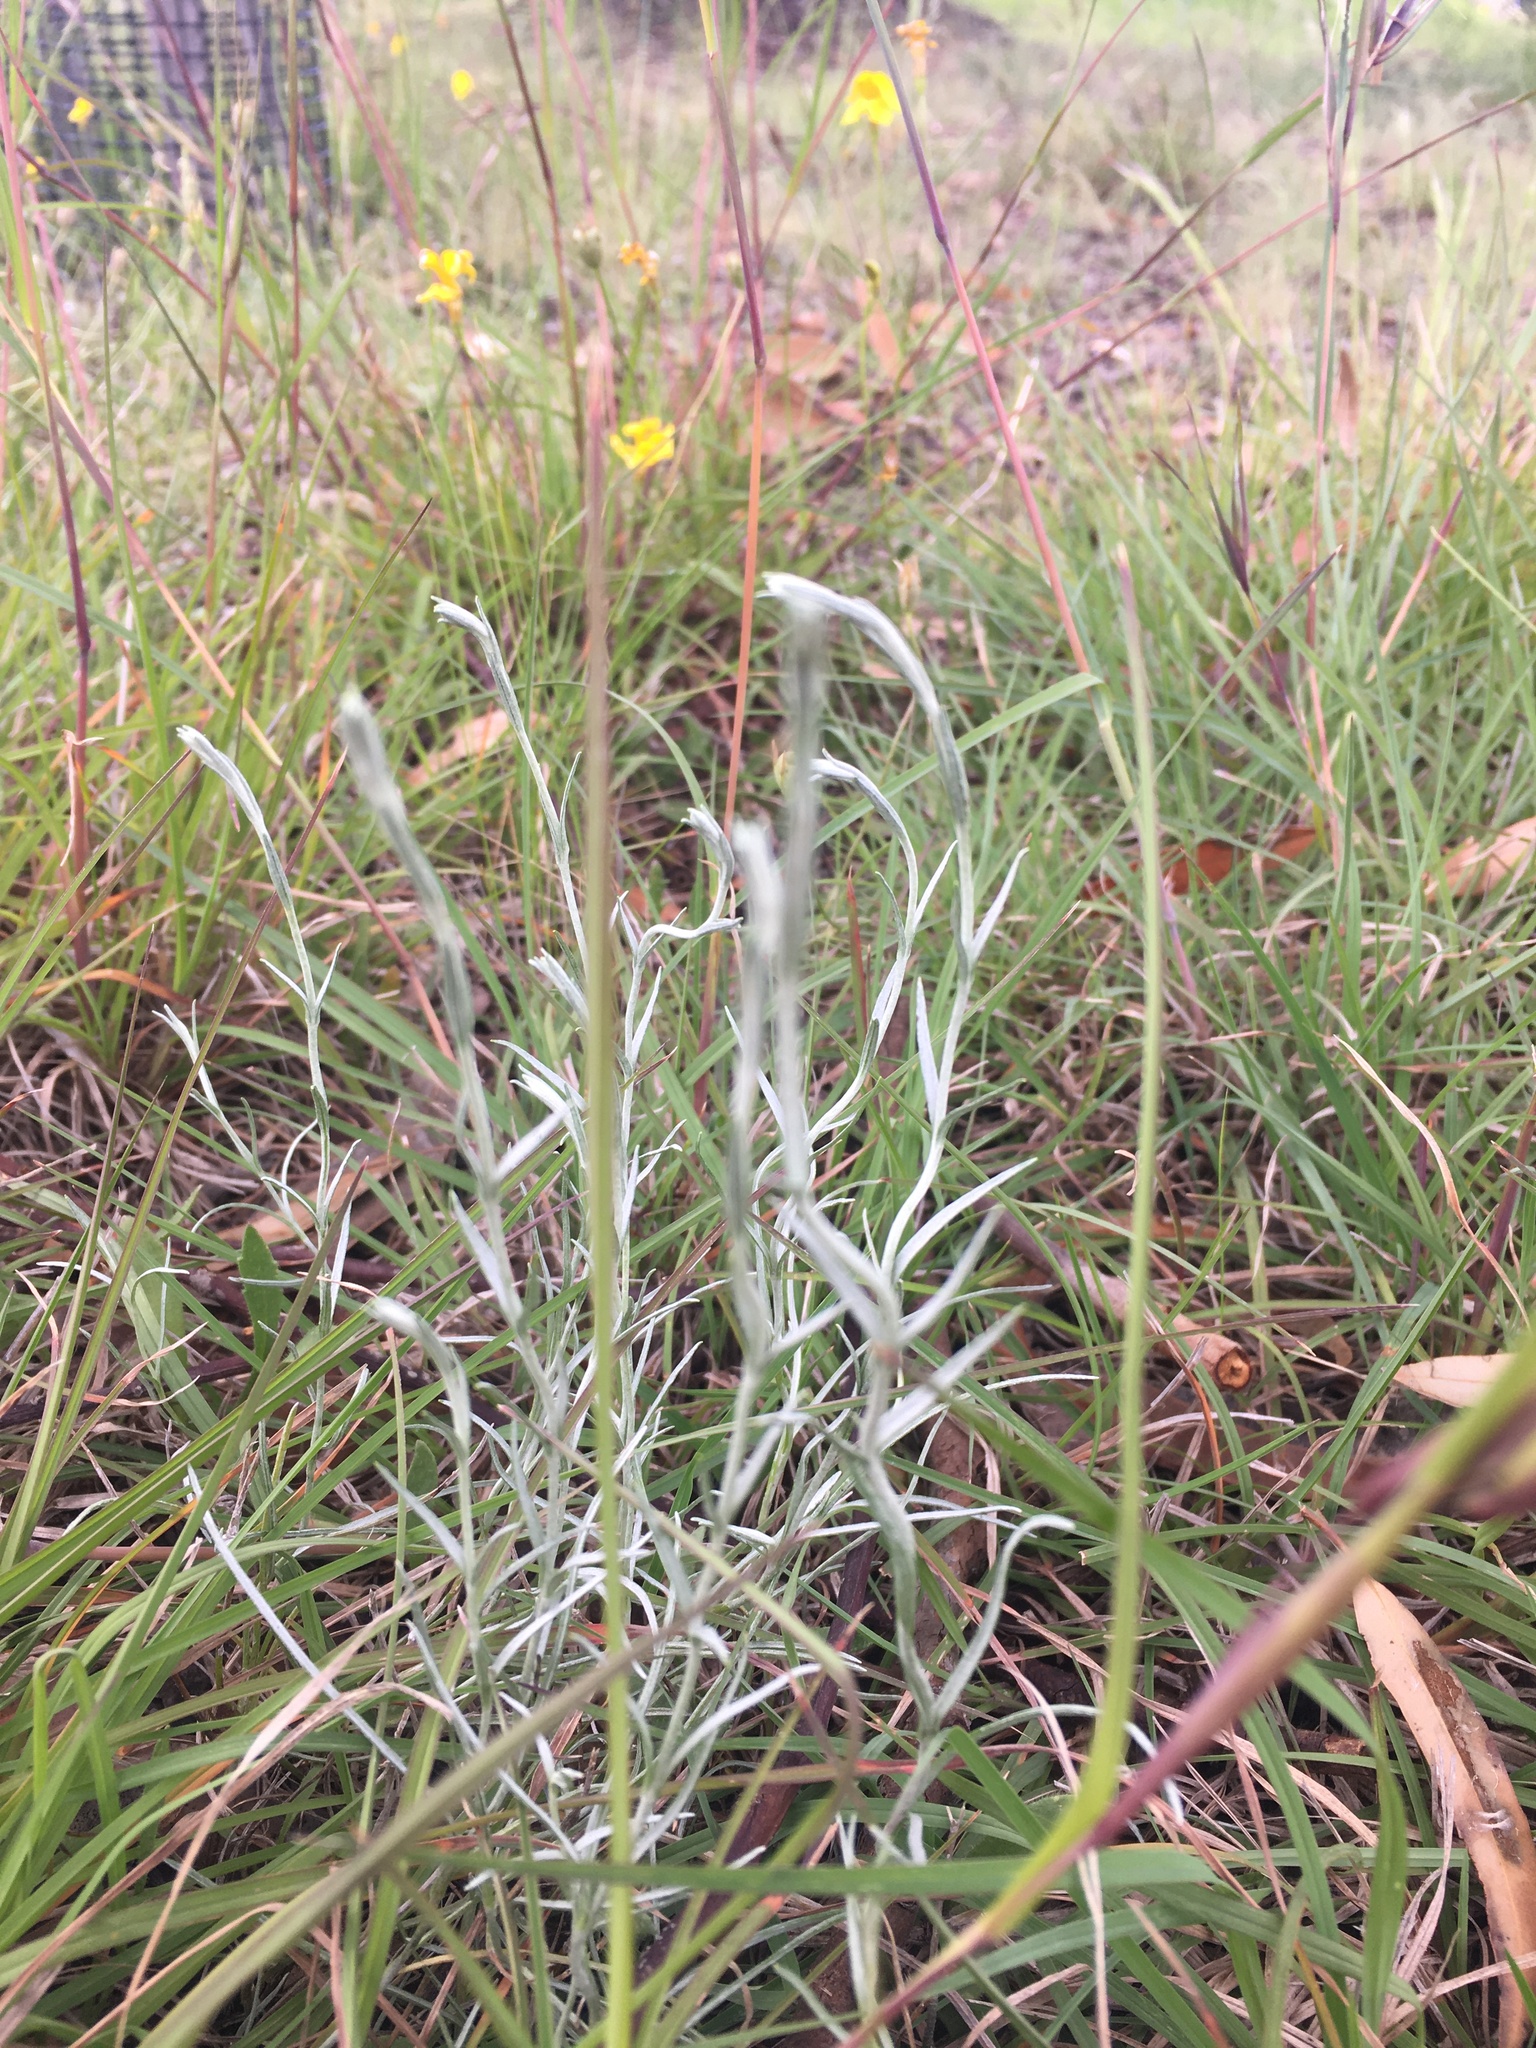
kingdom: Plantae
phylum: Tracheophyta
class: Magnoliopsida
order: Asterales
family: Asteraceae
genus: Calocephalus
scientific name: Calocephalus citreus
